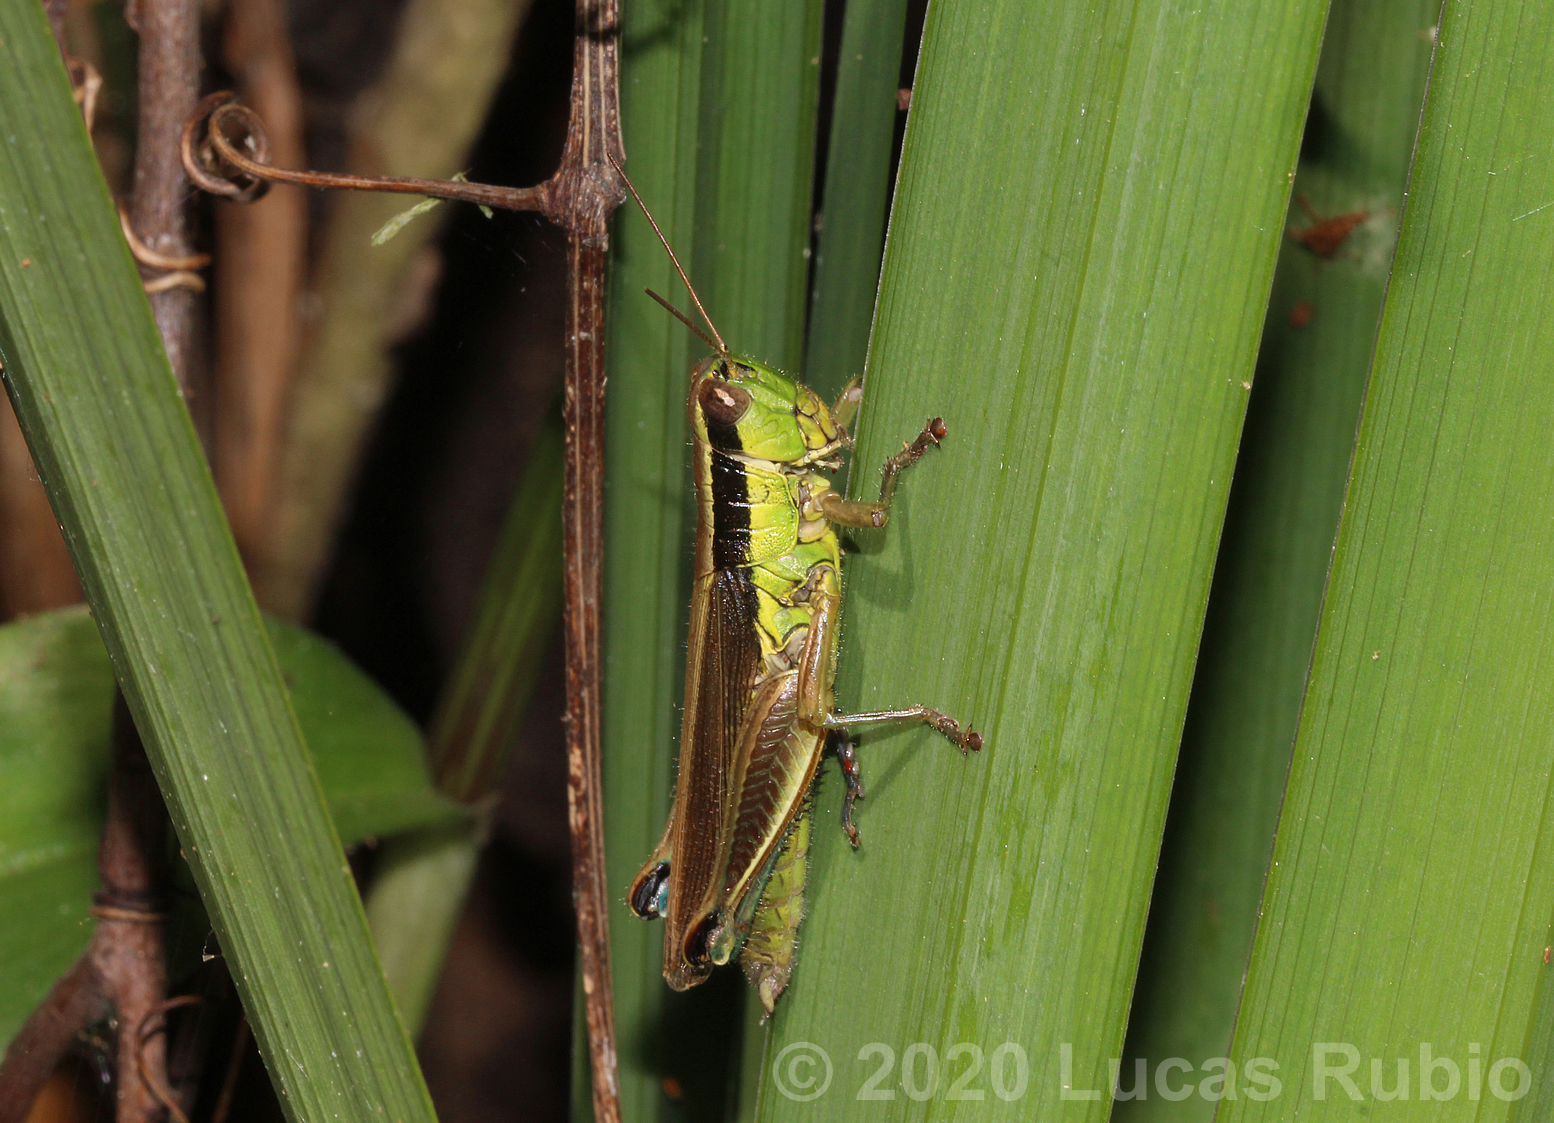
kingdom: Animalia
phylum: Arthropoda
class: Insecta
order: Orthoptera
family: Acrididae
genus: Scotussa
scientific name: Scotussa impudica
